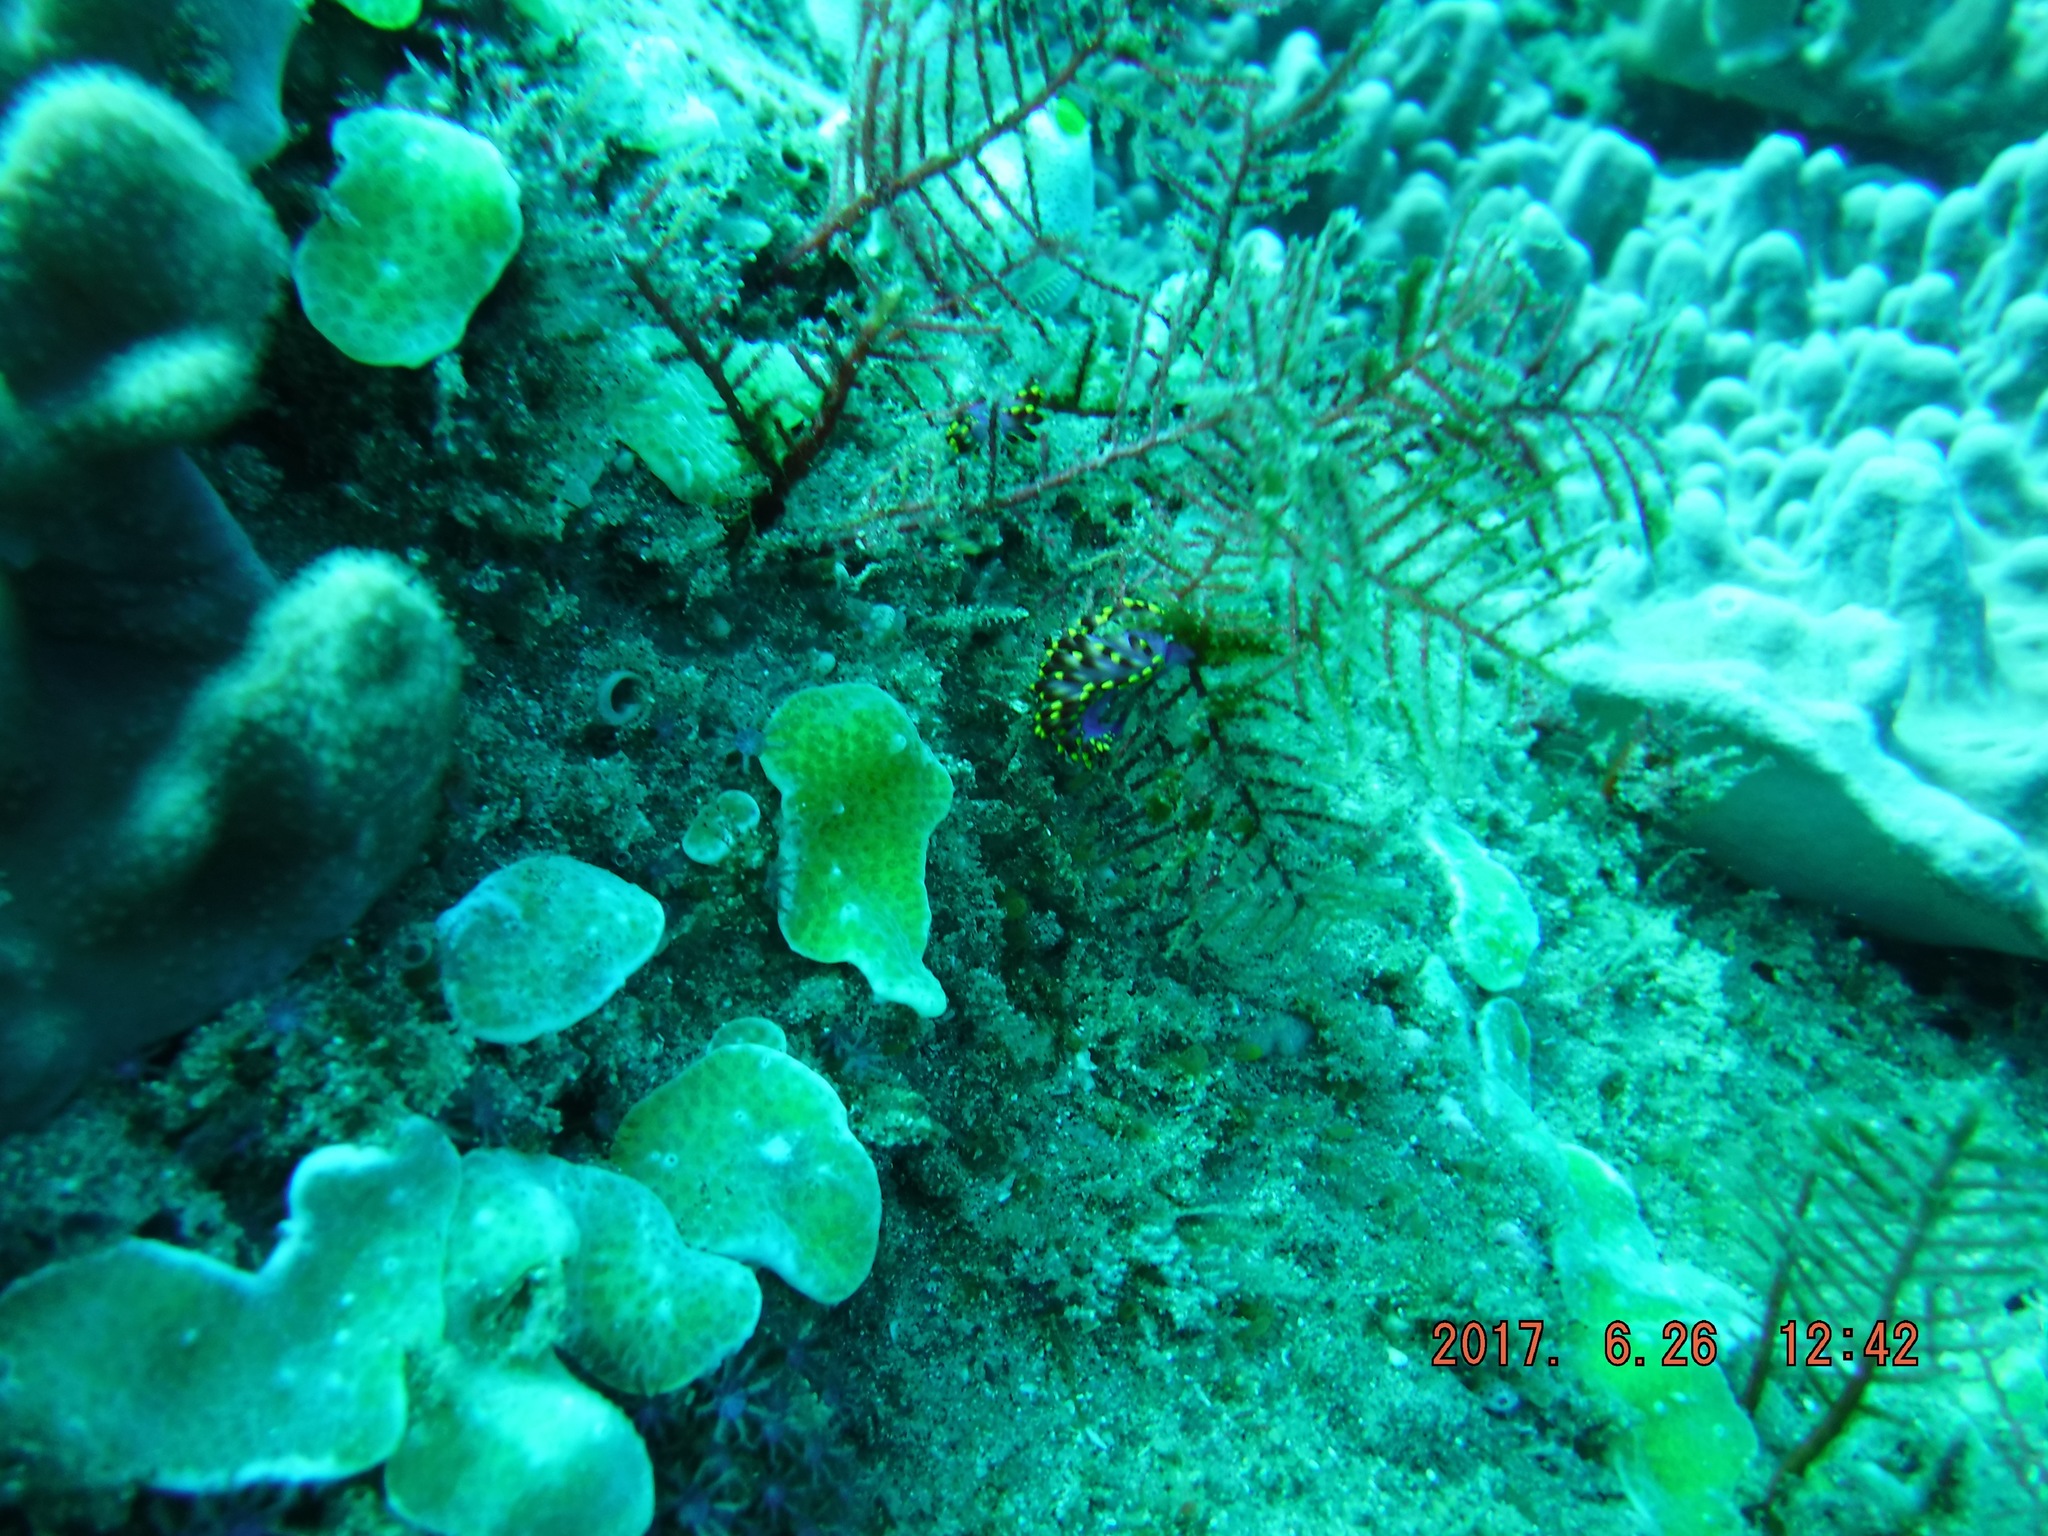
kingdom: Animalia
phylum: Mollusca
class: Gastropoda
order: Nudibranchia
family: Trinchesiidae
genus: Trinchesia
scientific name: Trinchesia sibogae
